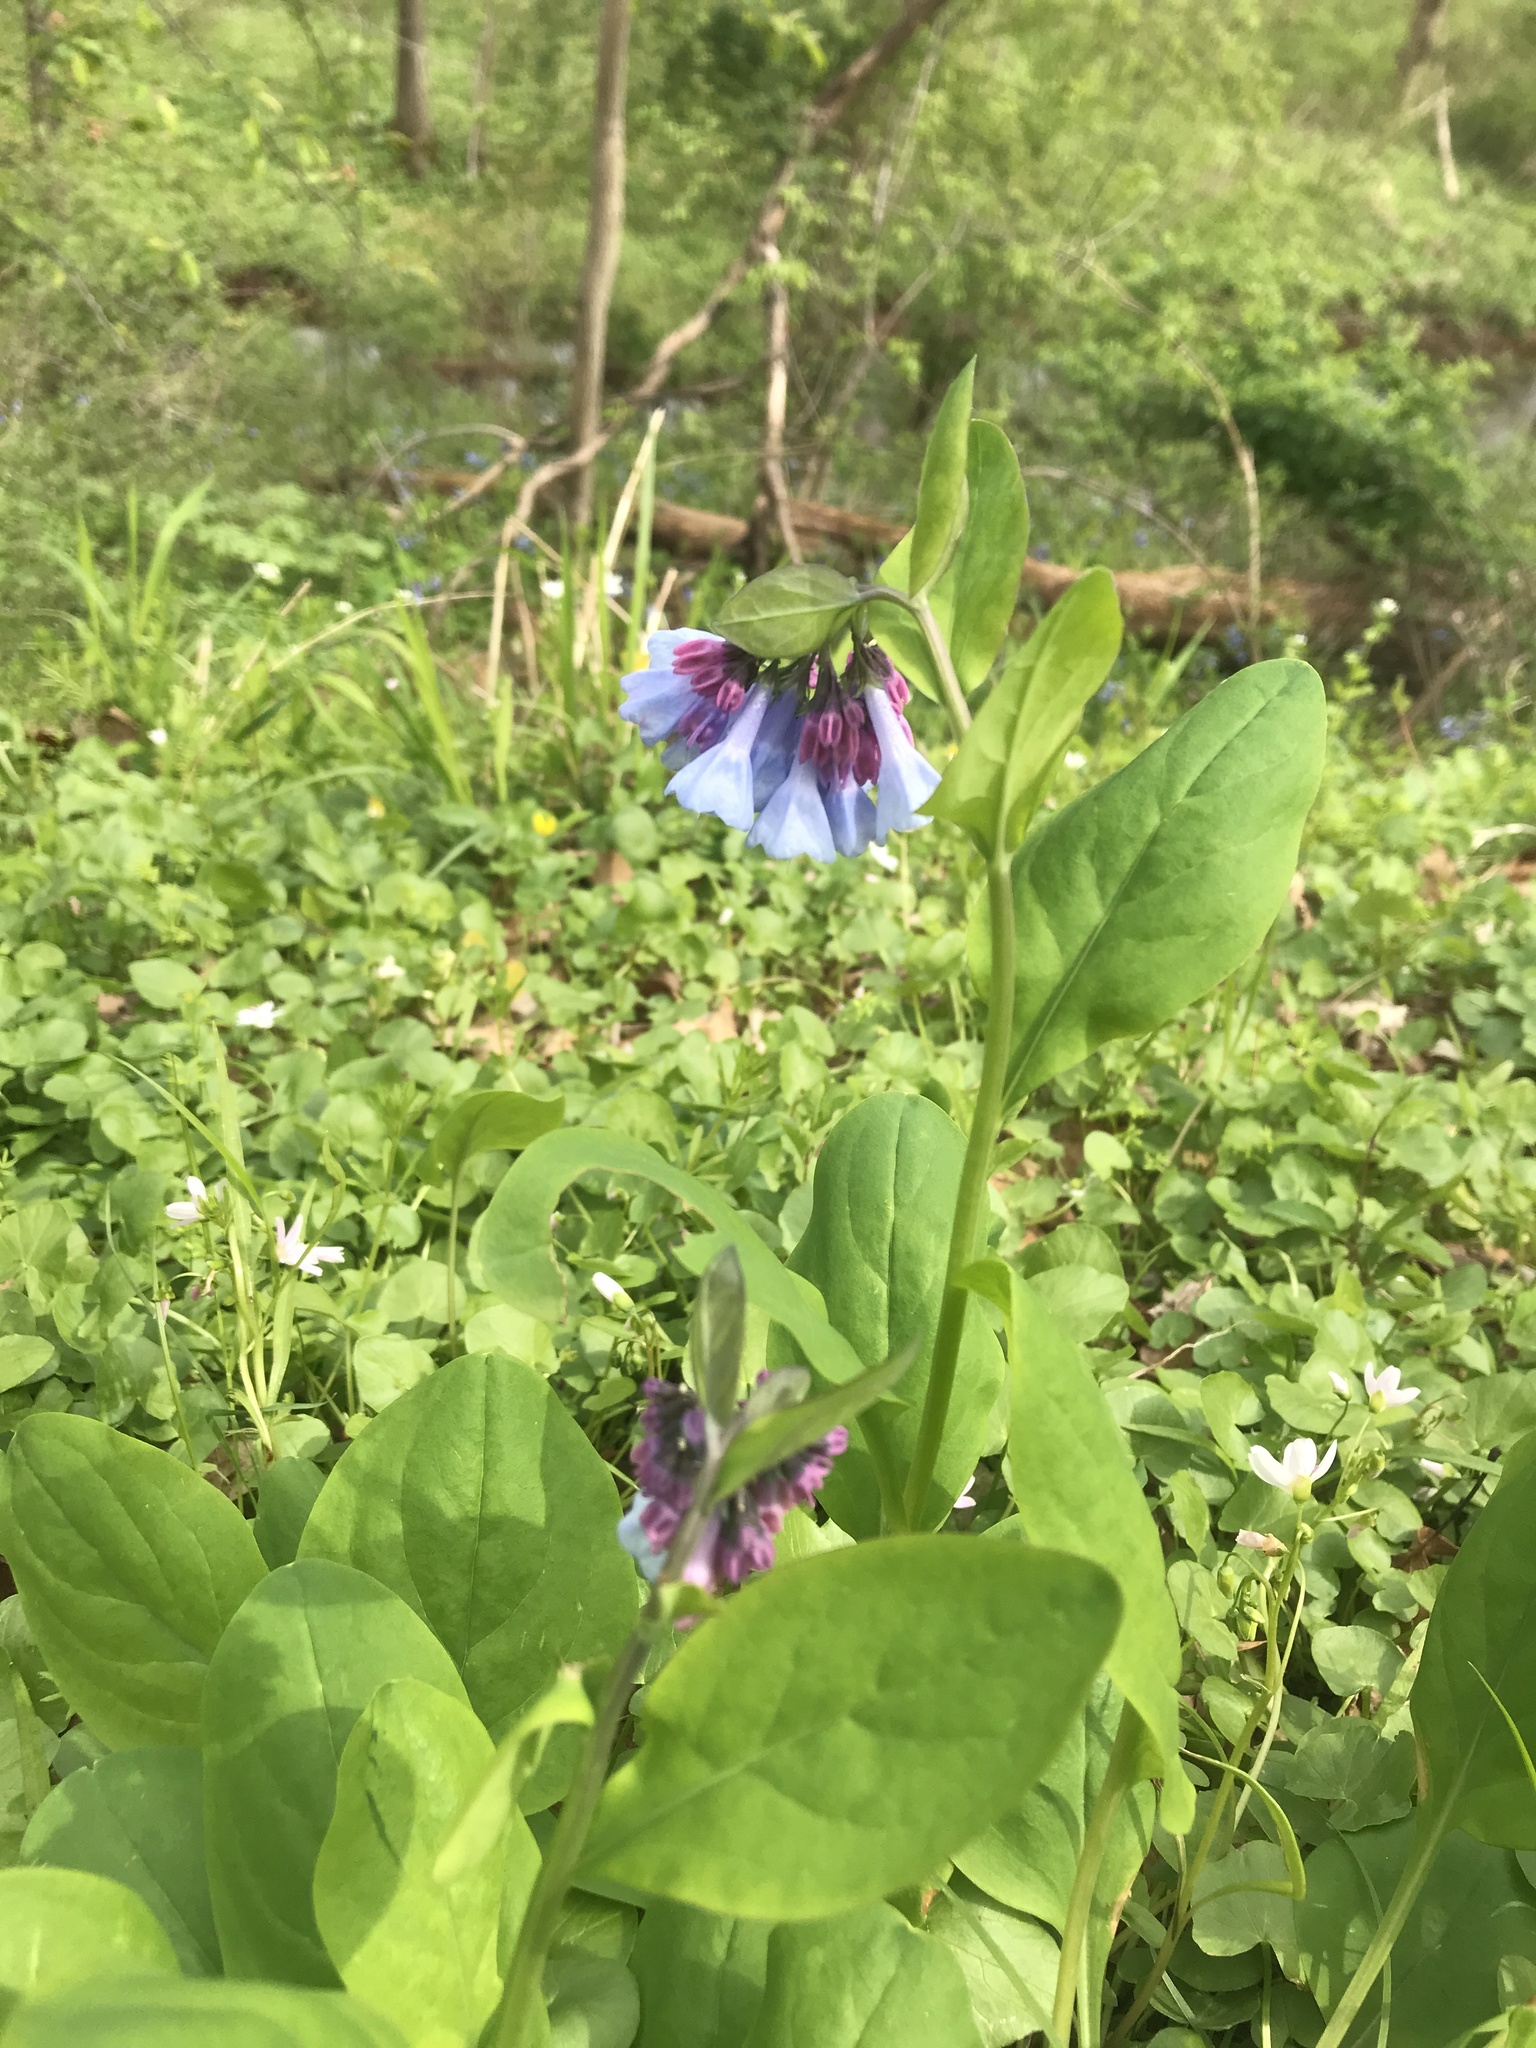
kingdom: Plantae
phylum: Tracheophyta
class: Magnoliopsida
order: Boraginales
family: Boraginaceae
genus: Mertensia
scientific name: Mertensia virginica
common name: Virginia bluebells
